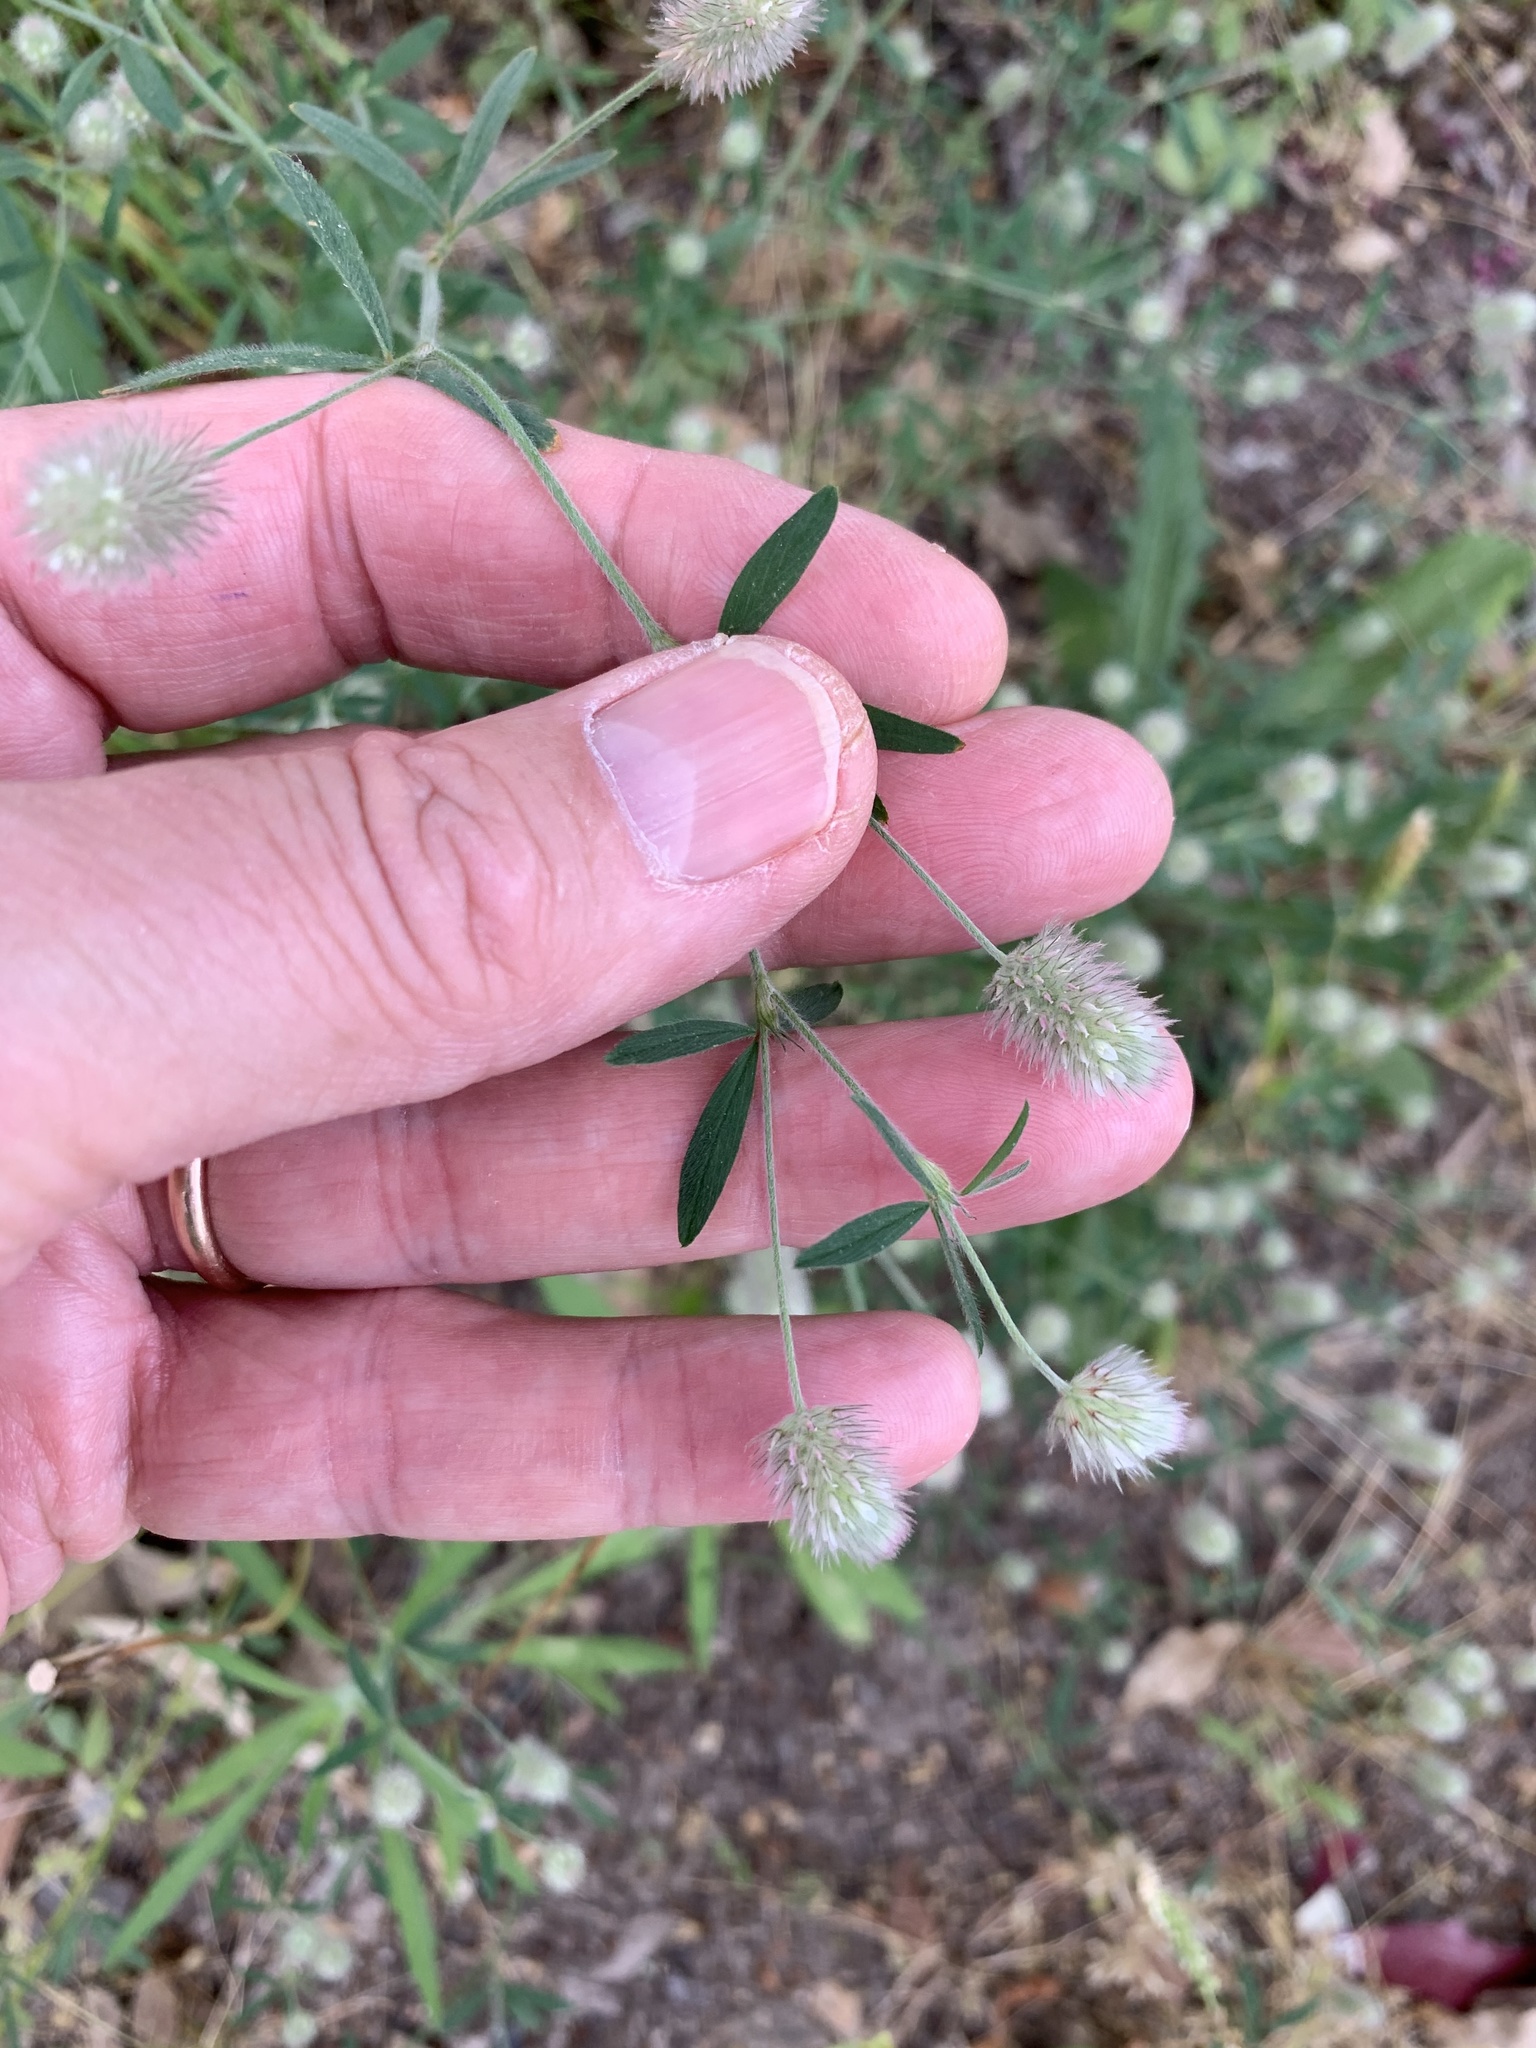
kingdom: Plantae
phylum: Tracheophyta
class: Magnoliopsida
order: Fabales
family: Fabaceae
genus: Trifolium
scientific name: Trifolium arvense
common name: Hare's-foot clover
